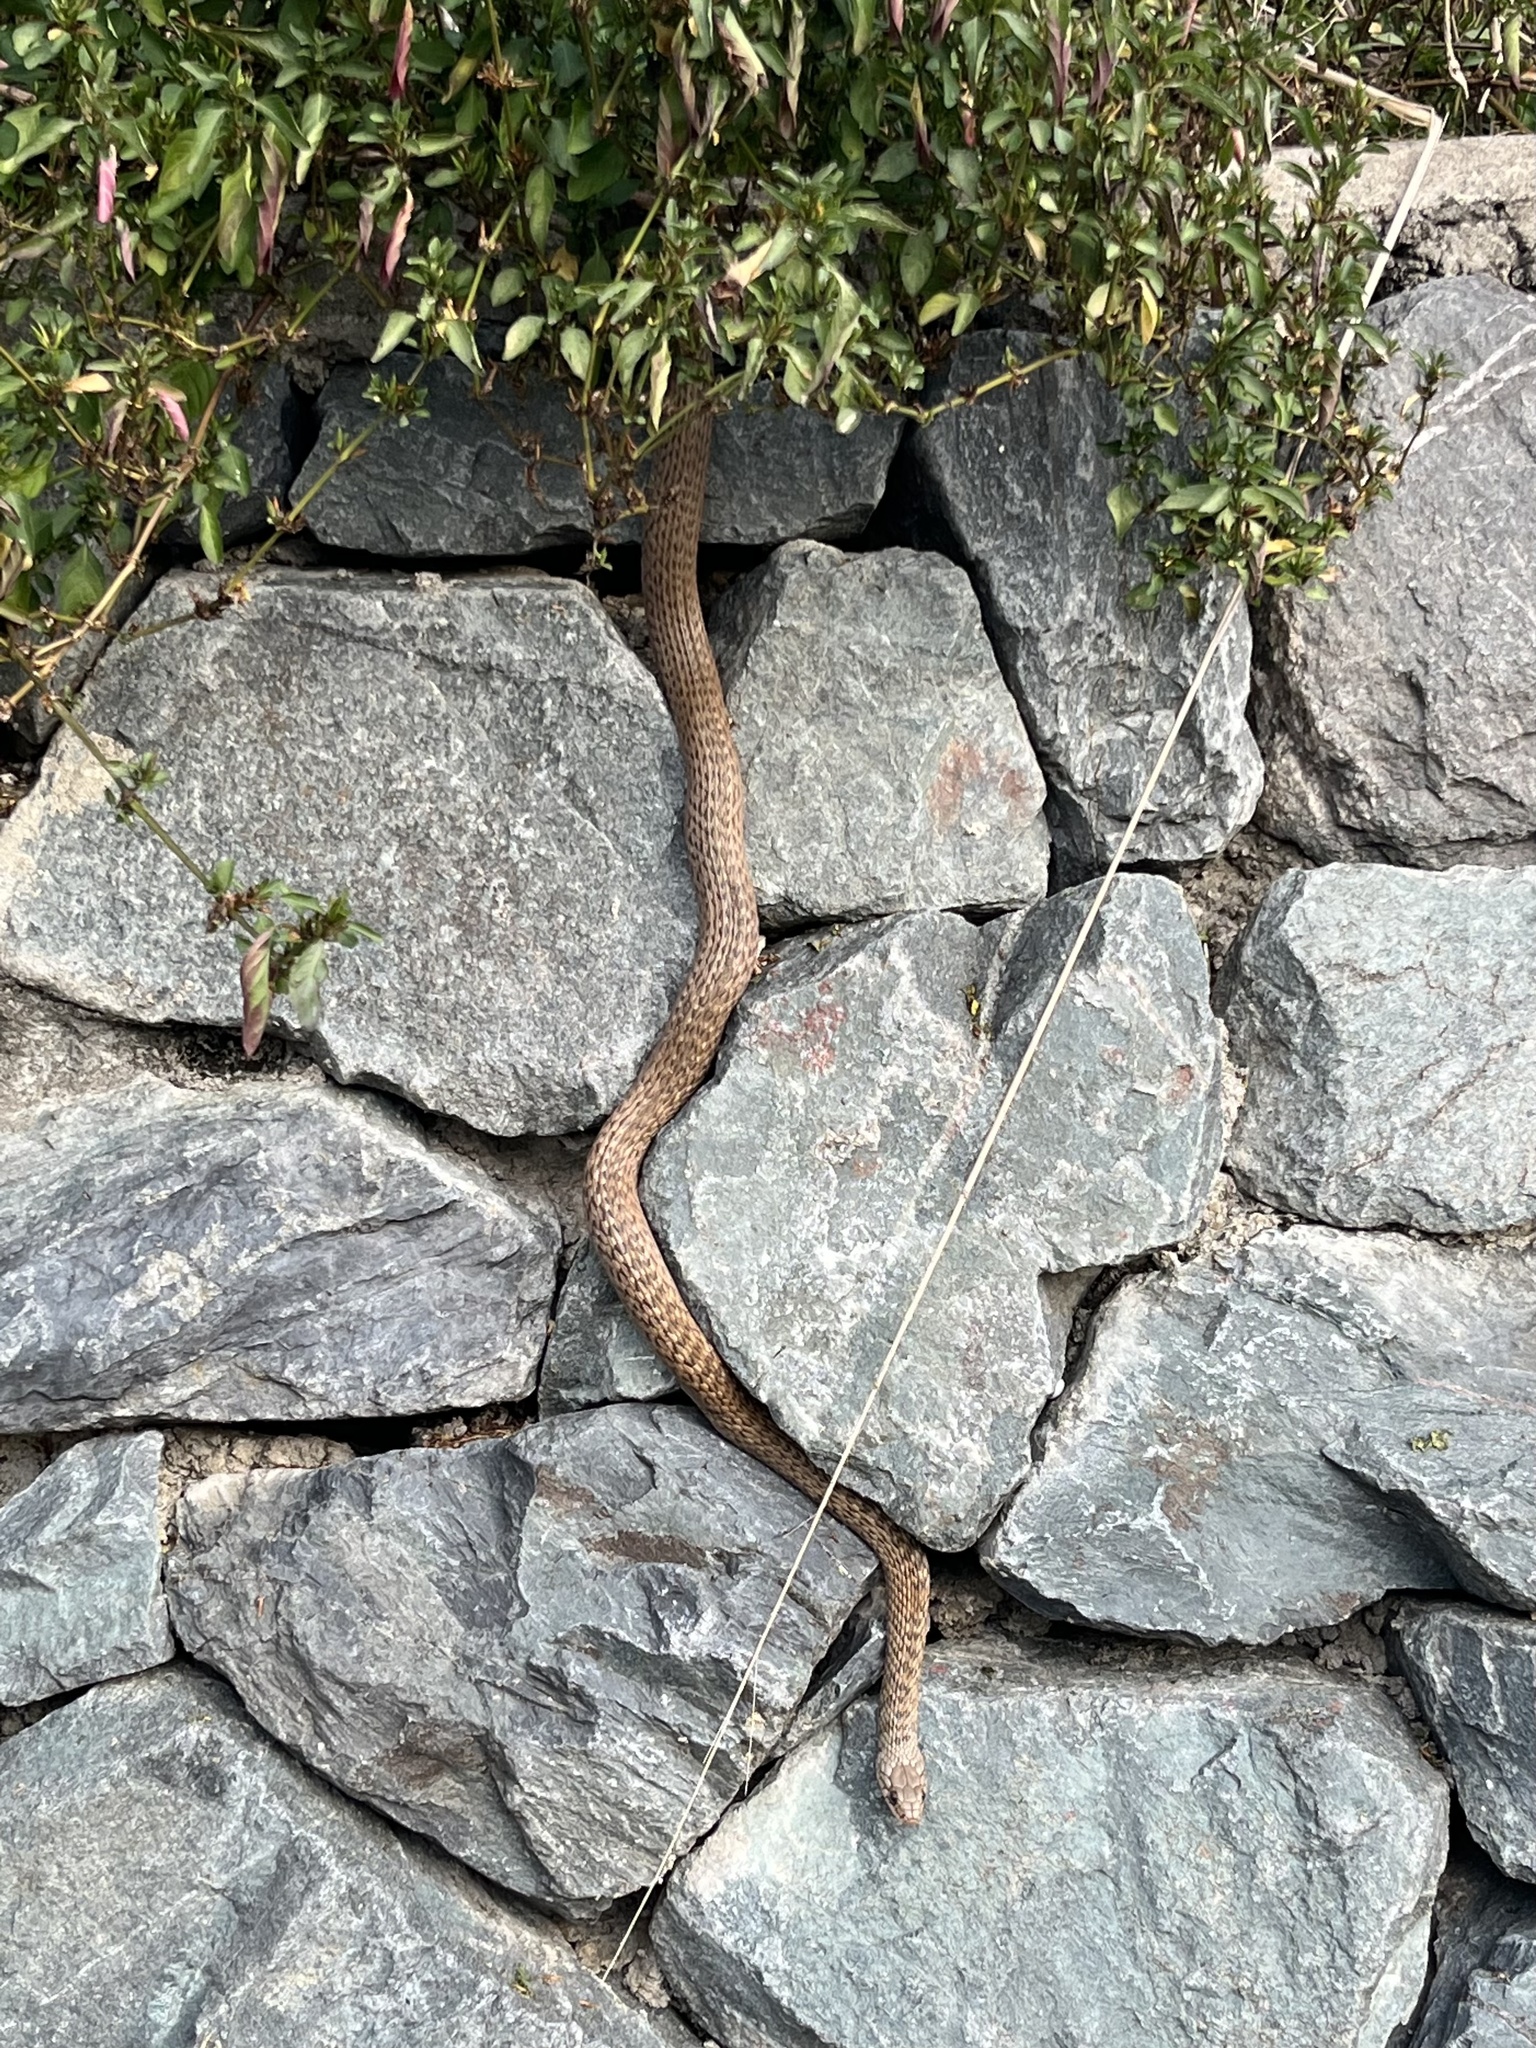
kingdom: Animalia
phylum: Chordata
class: Squamata
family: Colubridae
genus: Tropidonophis
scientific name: Tropidonophis mairii
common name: Common keelback
